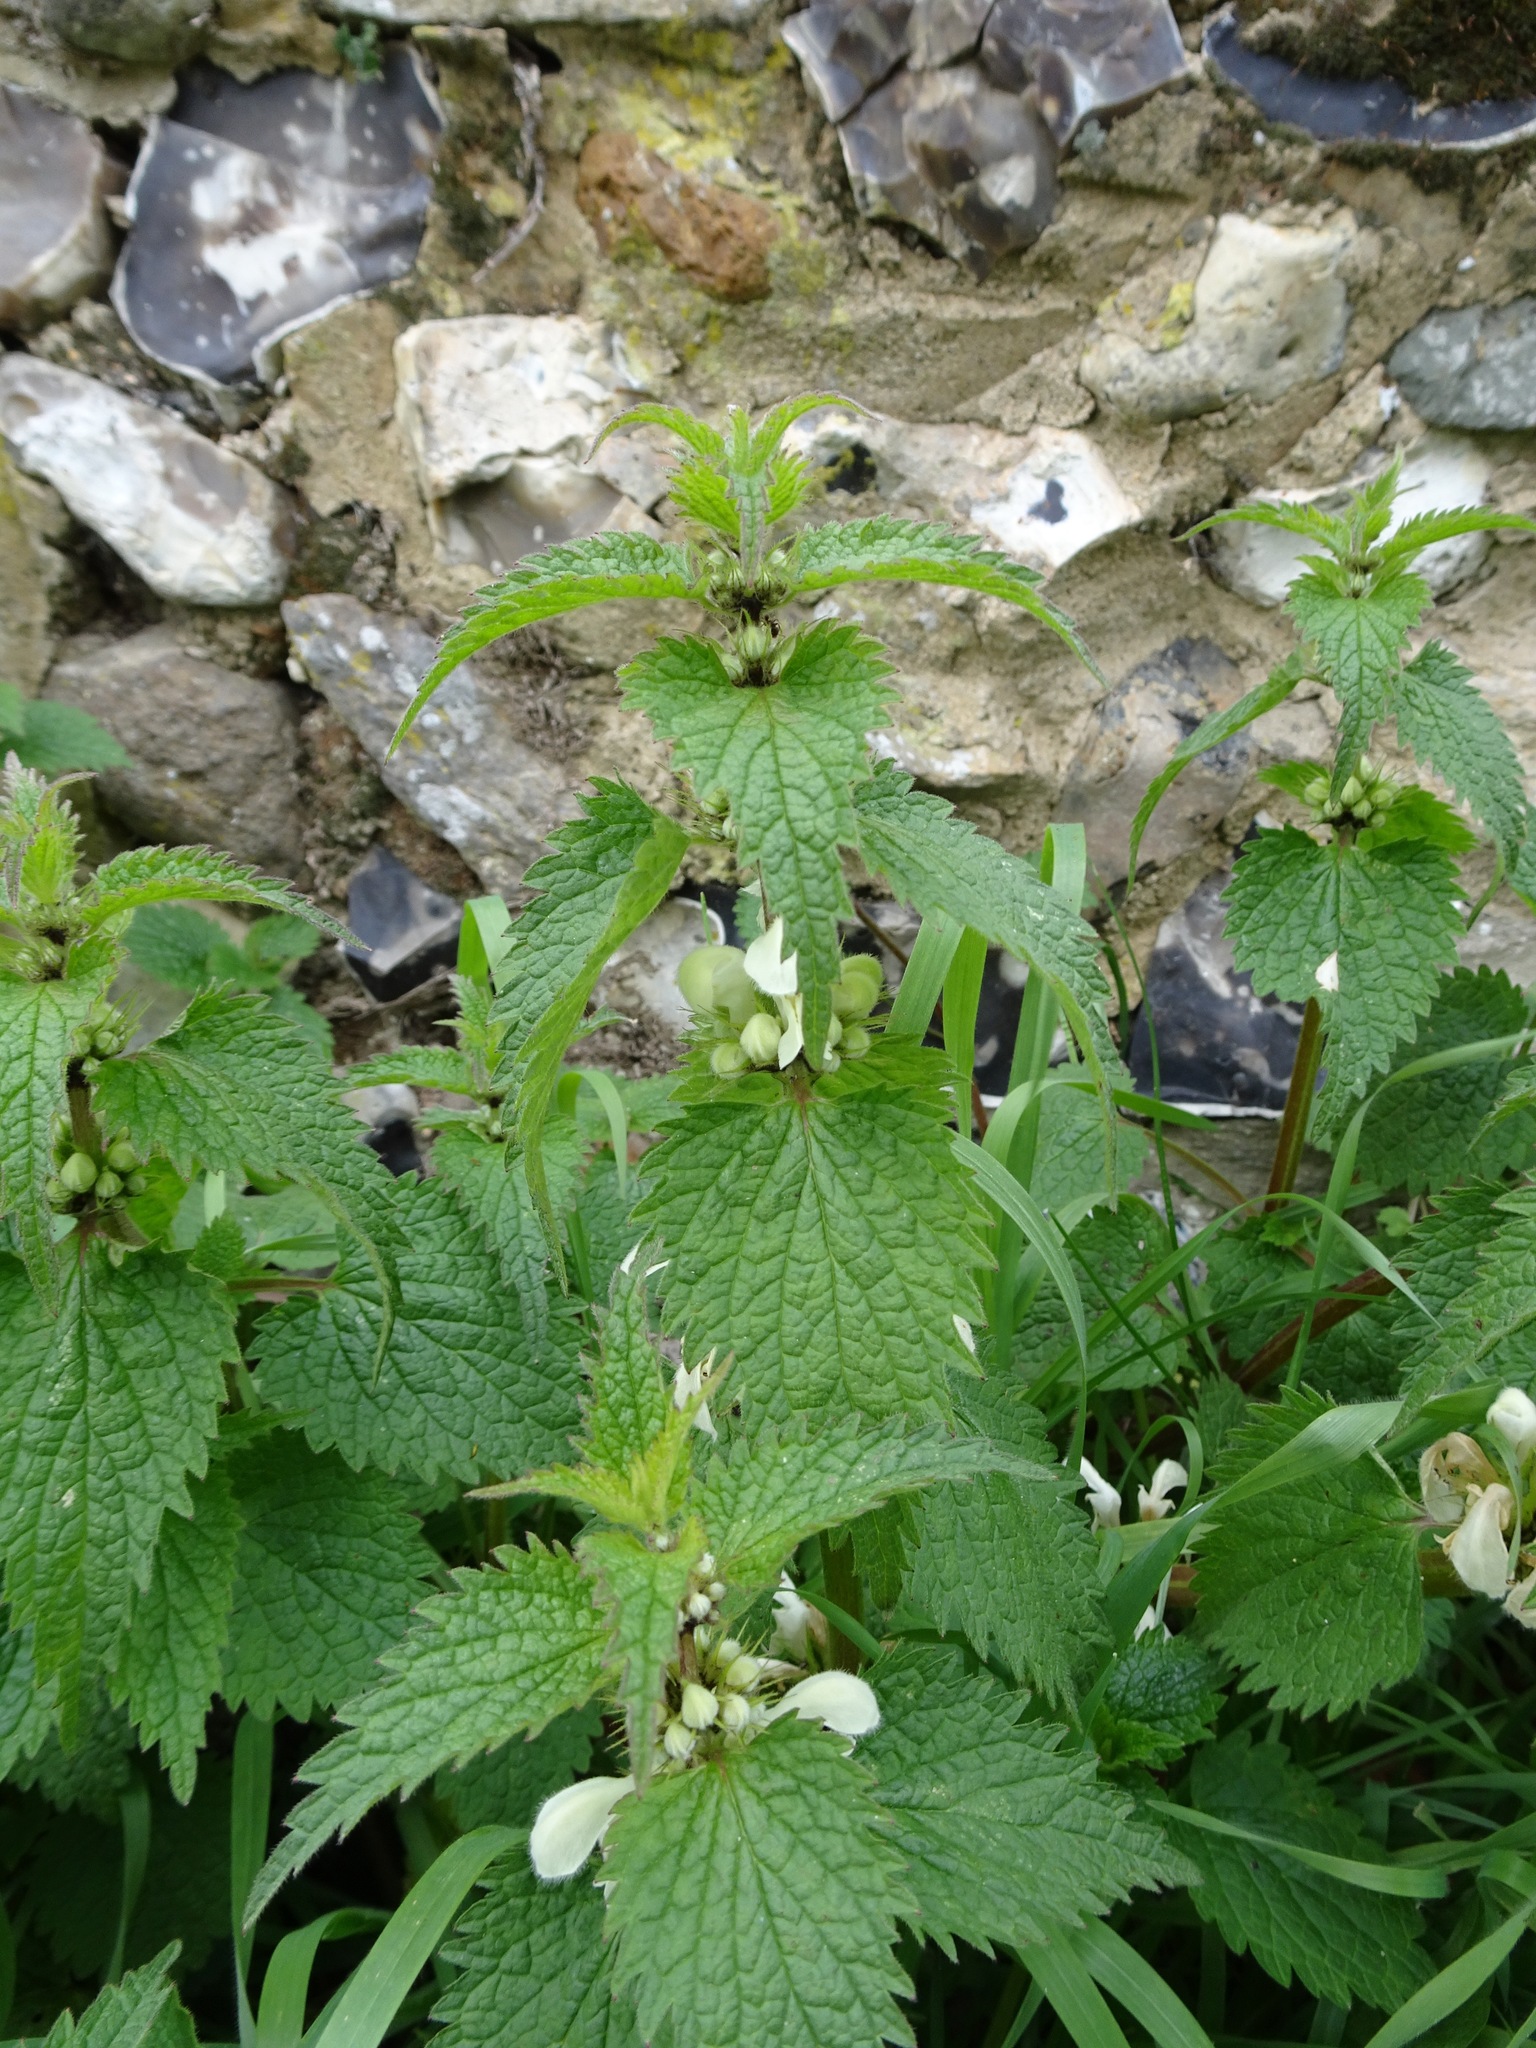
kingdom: Plantae
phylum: Tracheophyta
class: Magnoliopsida
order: Lamiales
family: Lamiaceae
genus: Lamium
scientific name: Lamium album
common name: White dead-nettle
